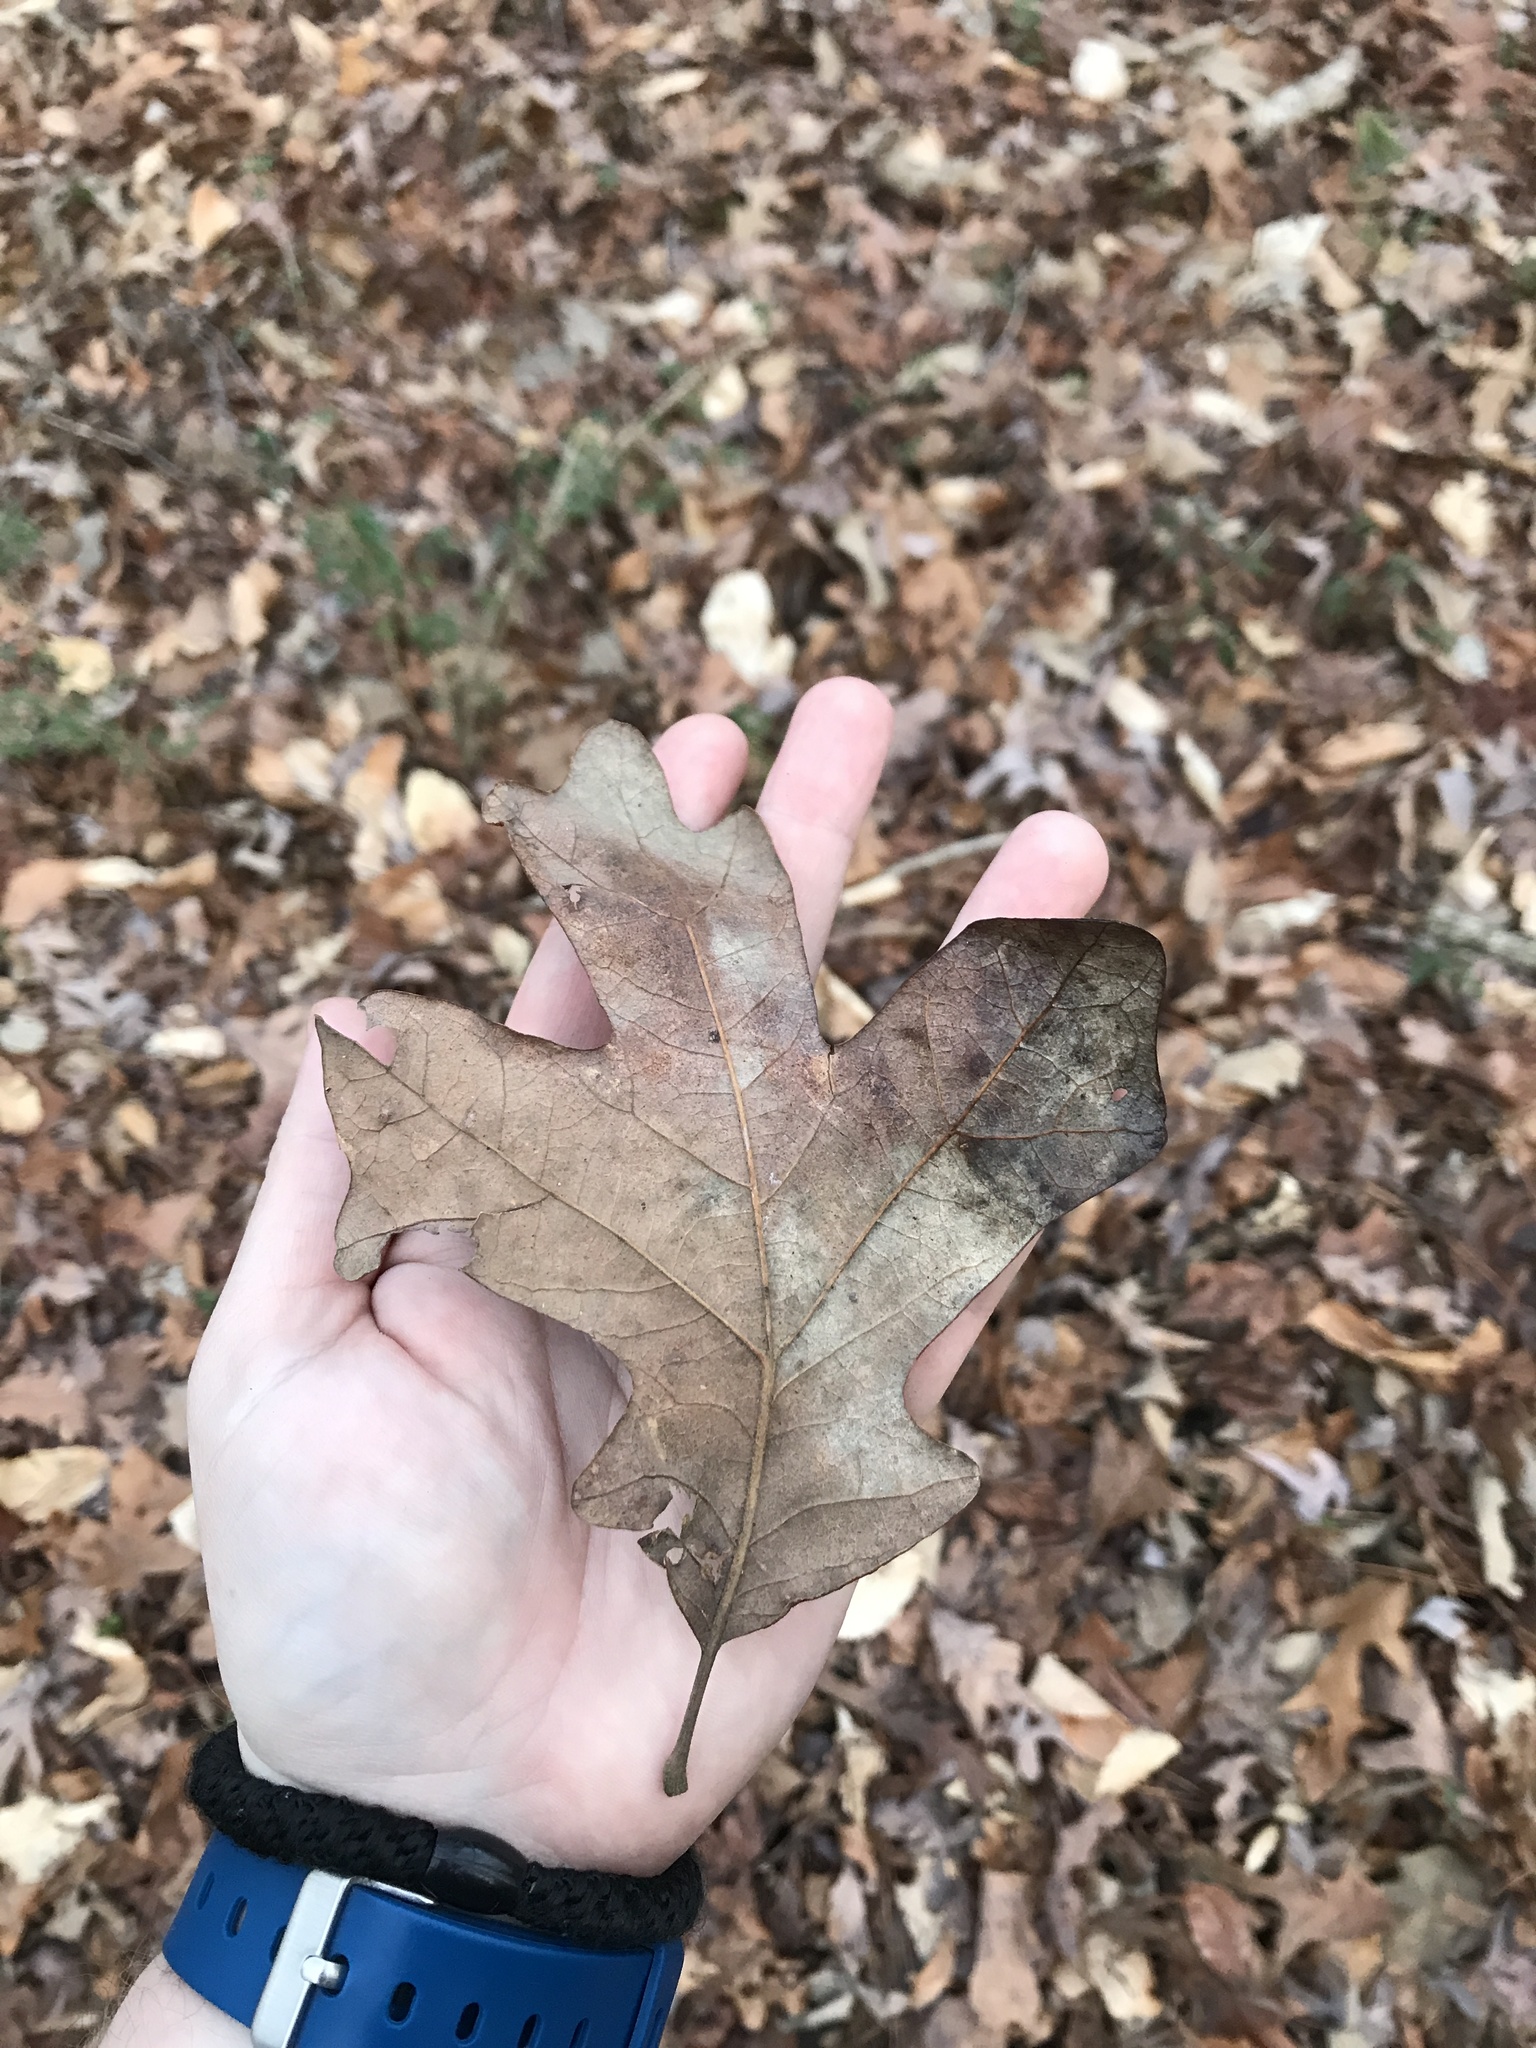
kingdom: Plantae
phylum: Tracheophyta
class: Magnoliopsida
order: Fagales
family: Fagaceae
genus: Quercus
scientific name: Quercus stellata
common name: Post oak
